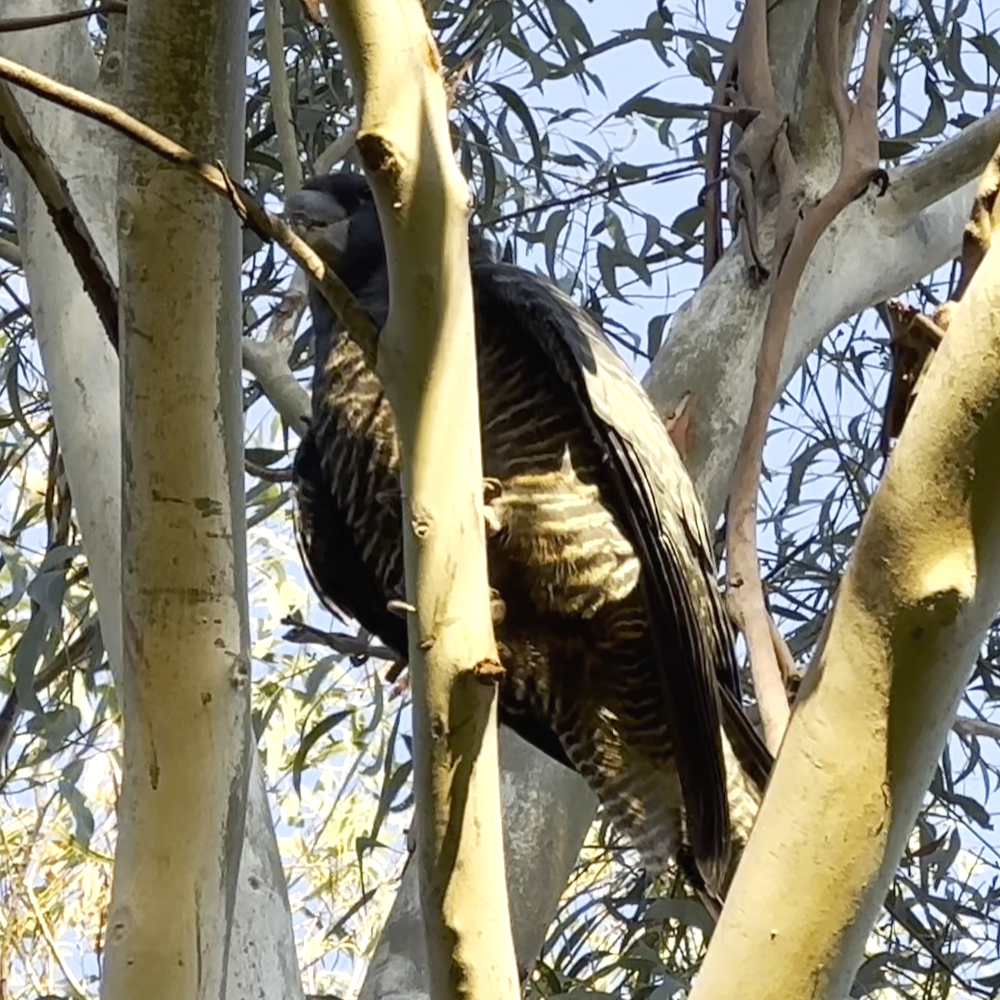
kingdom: Animalia
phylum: Chordata
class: Aves
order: Psittaciformes
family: Psittacidae
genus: Callocephalon
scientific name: Callocephalon fimbriatum
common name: Gang-gang cockatoo
